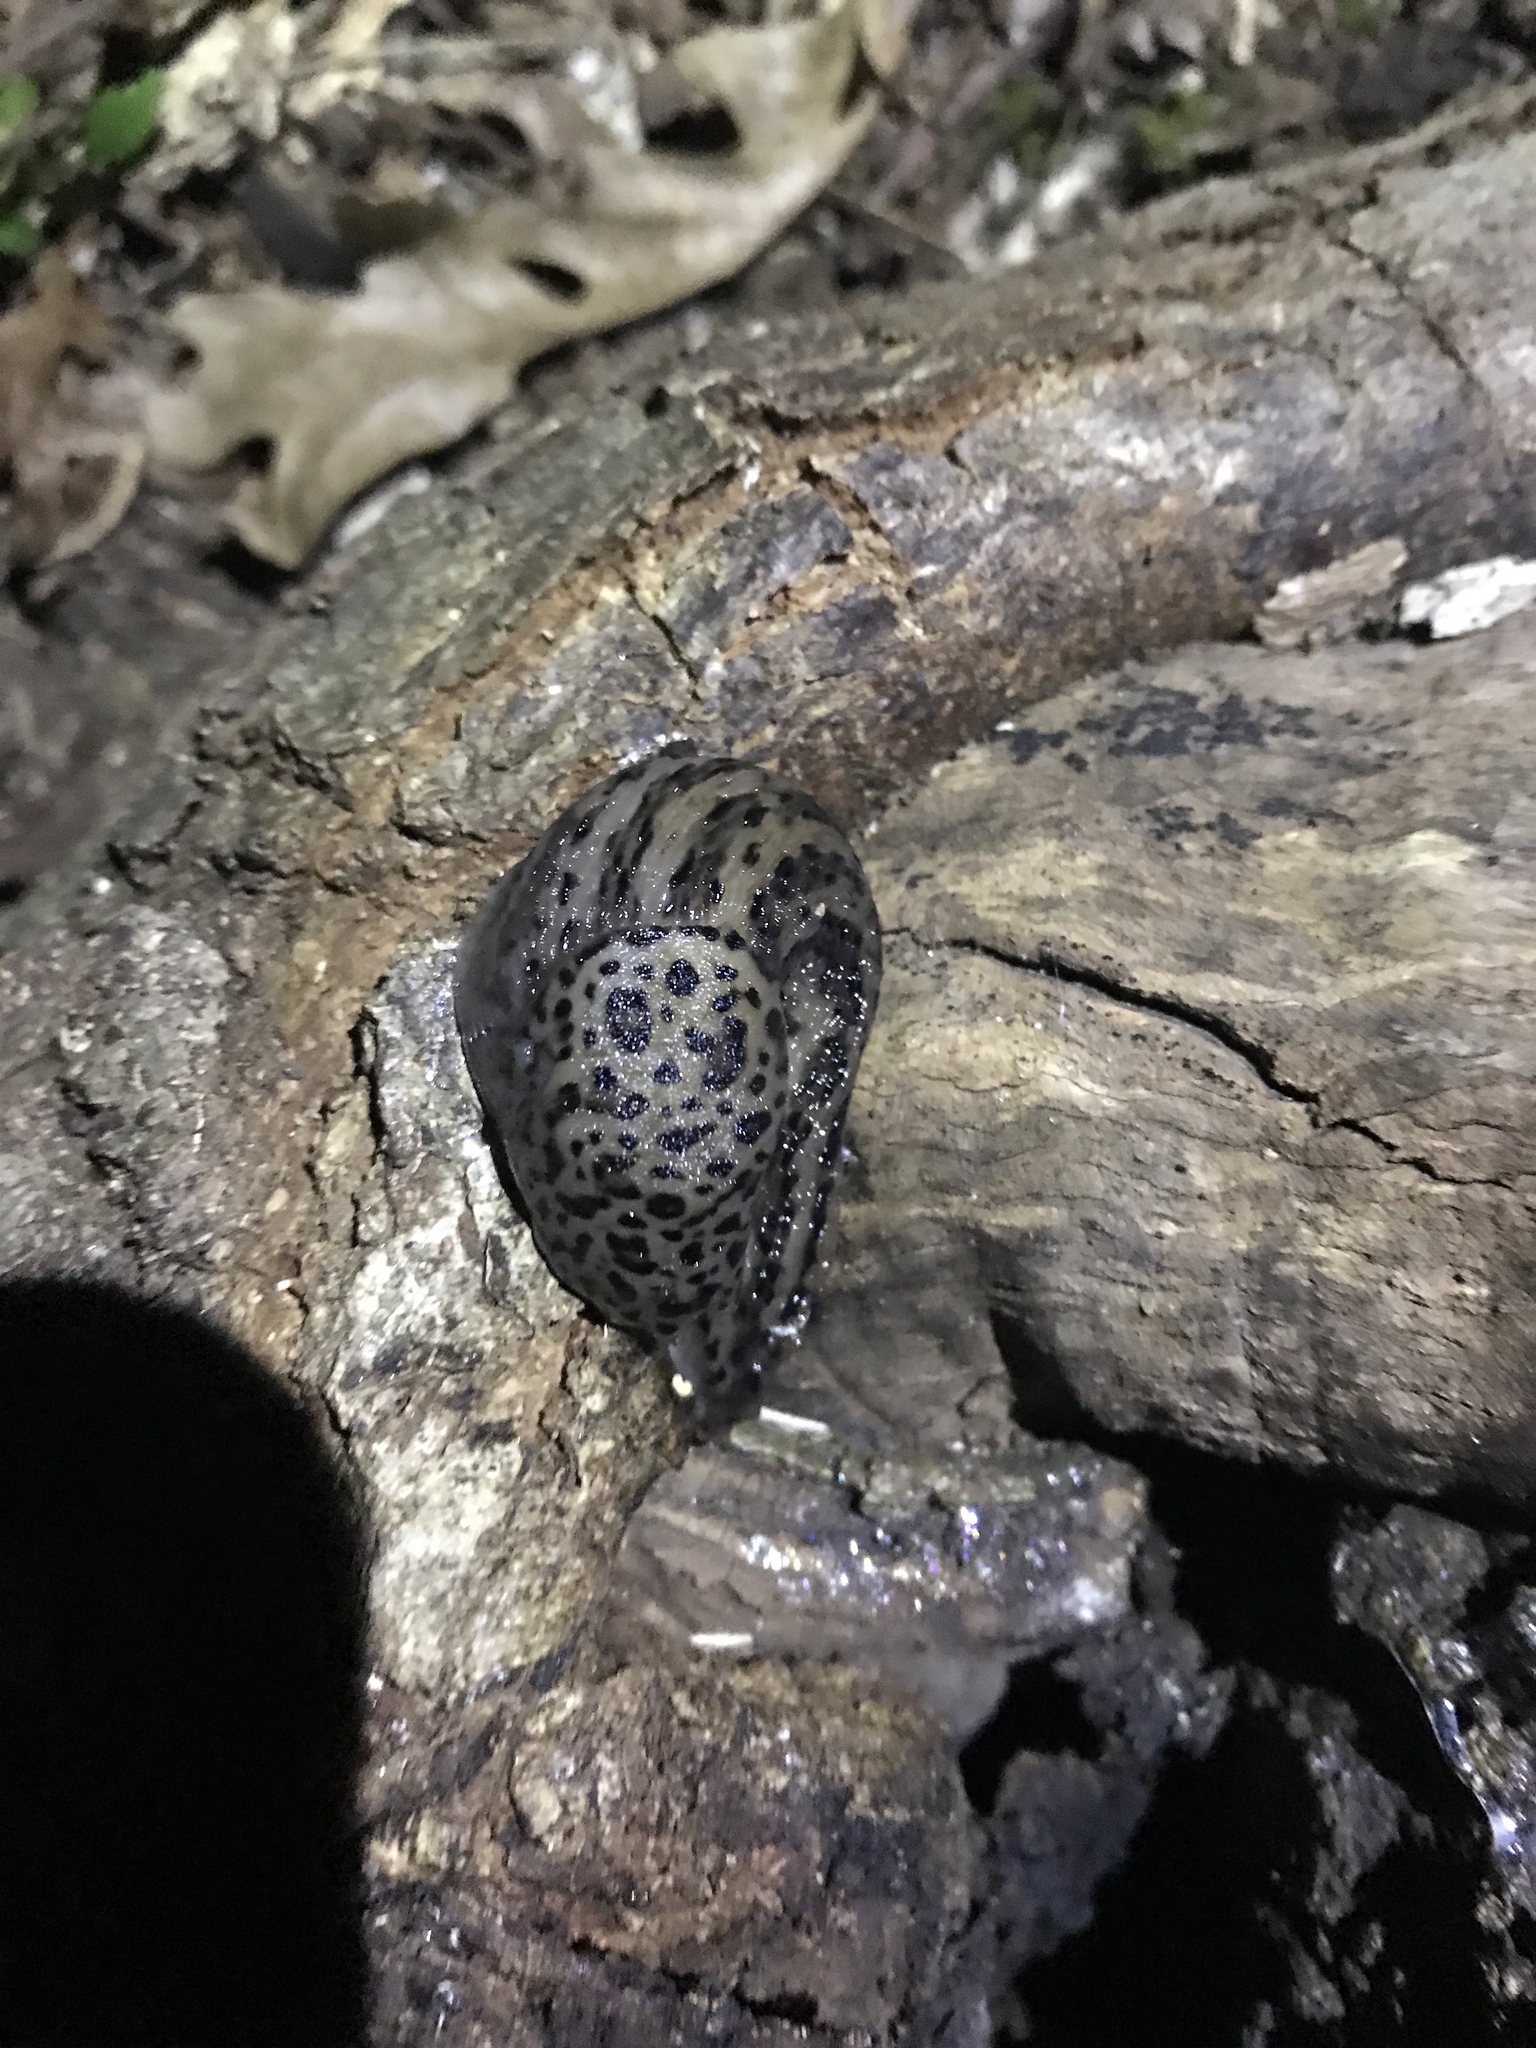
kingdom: Animalia
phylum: Mollusca
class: Gastropoda
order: Stylommatophora
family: Limacidae
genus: Limax
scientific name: Limax maximus
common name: Great grey slug
